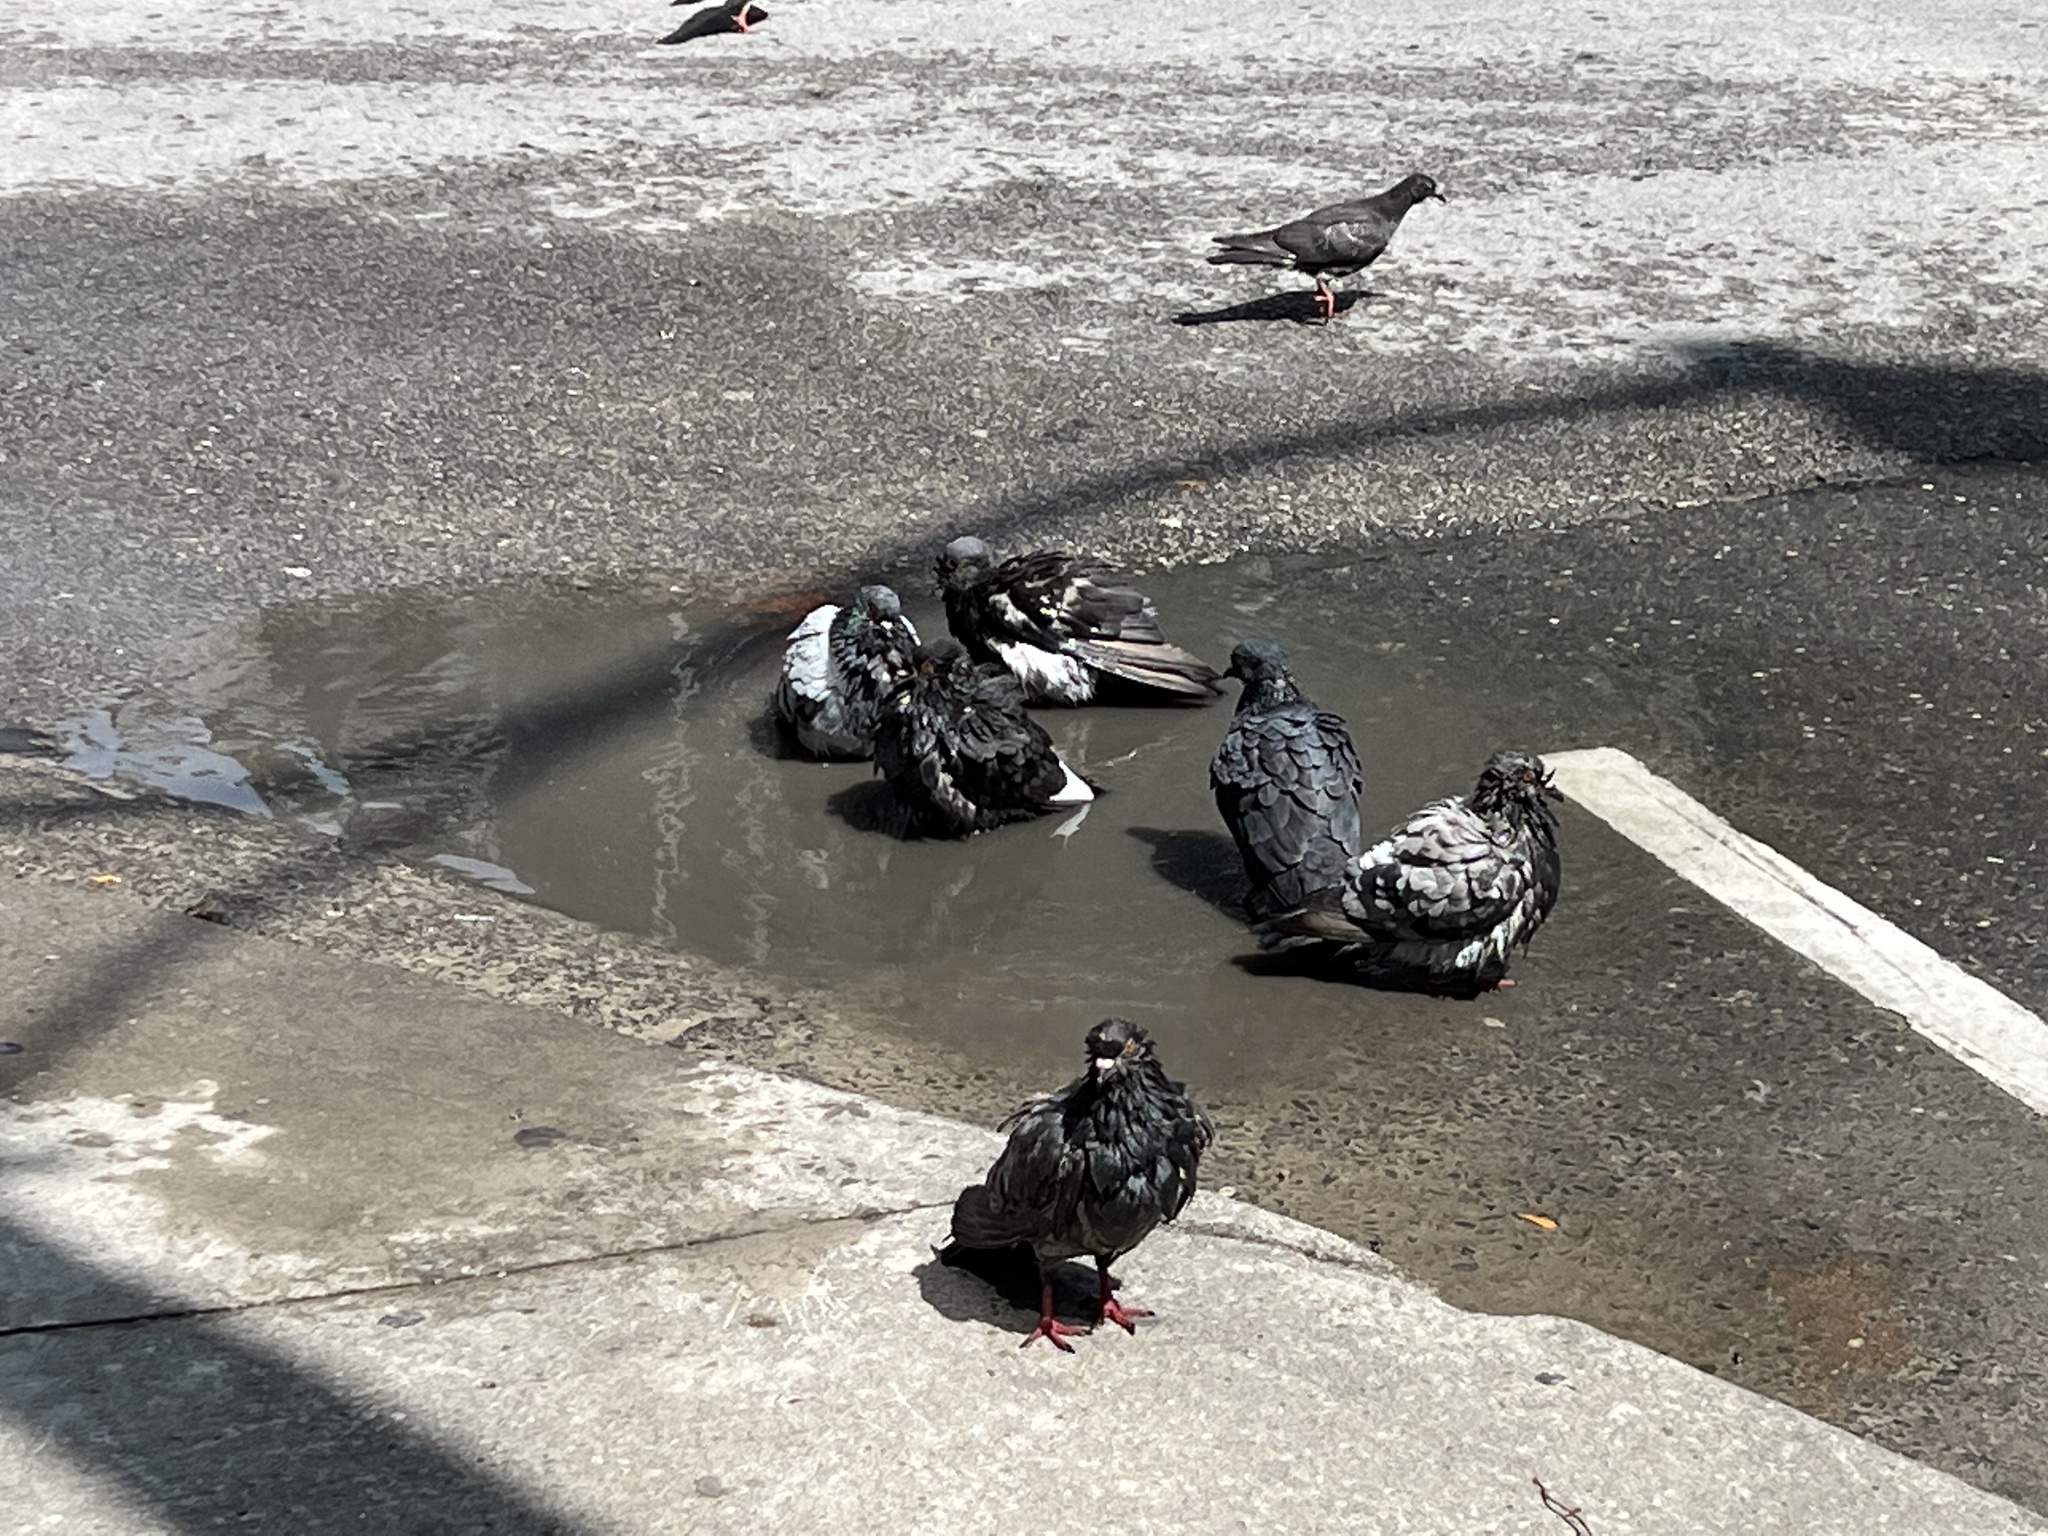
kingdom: Animalia
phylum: Chordata
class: Aves
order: Columbiformes
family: Columbidae
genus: Columba
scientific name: Columba livia
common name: Rock pigeon
